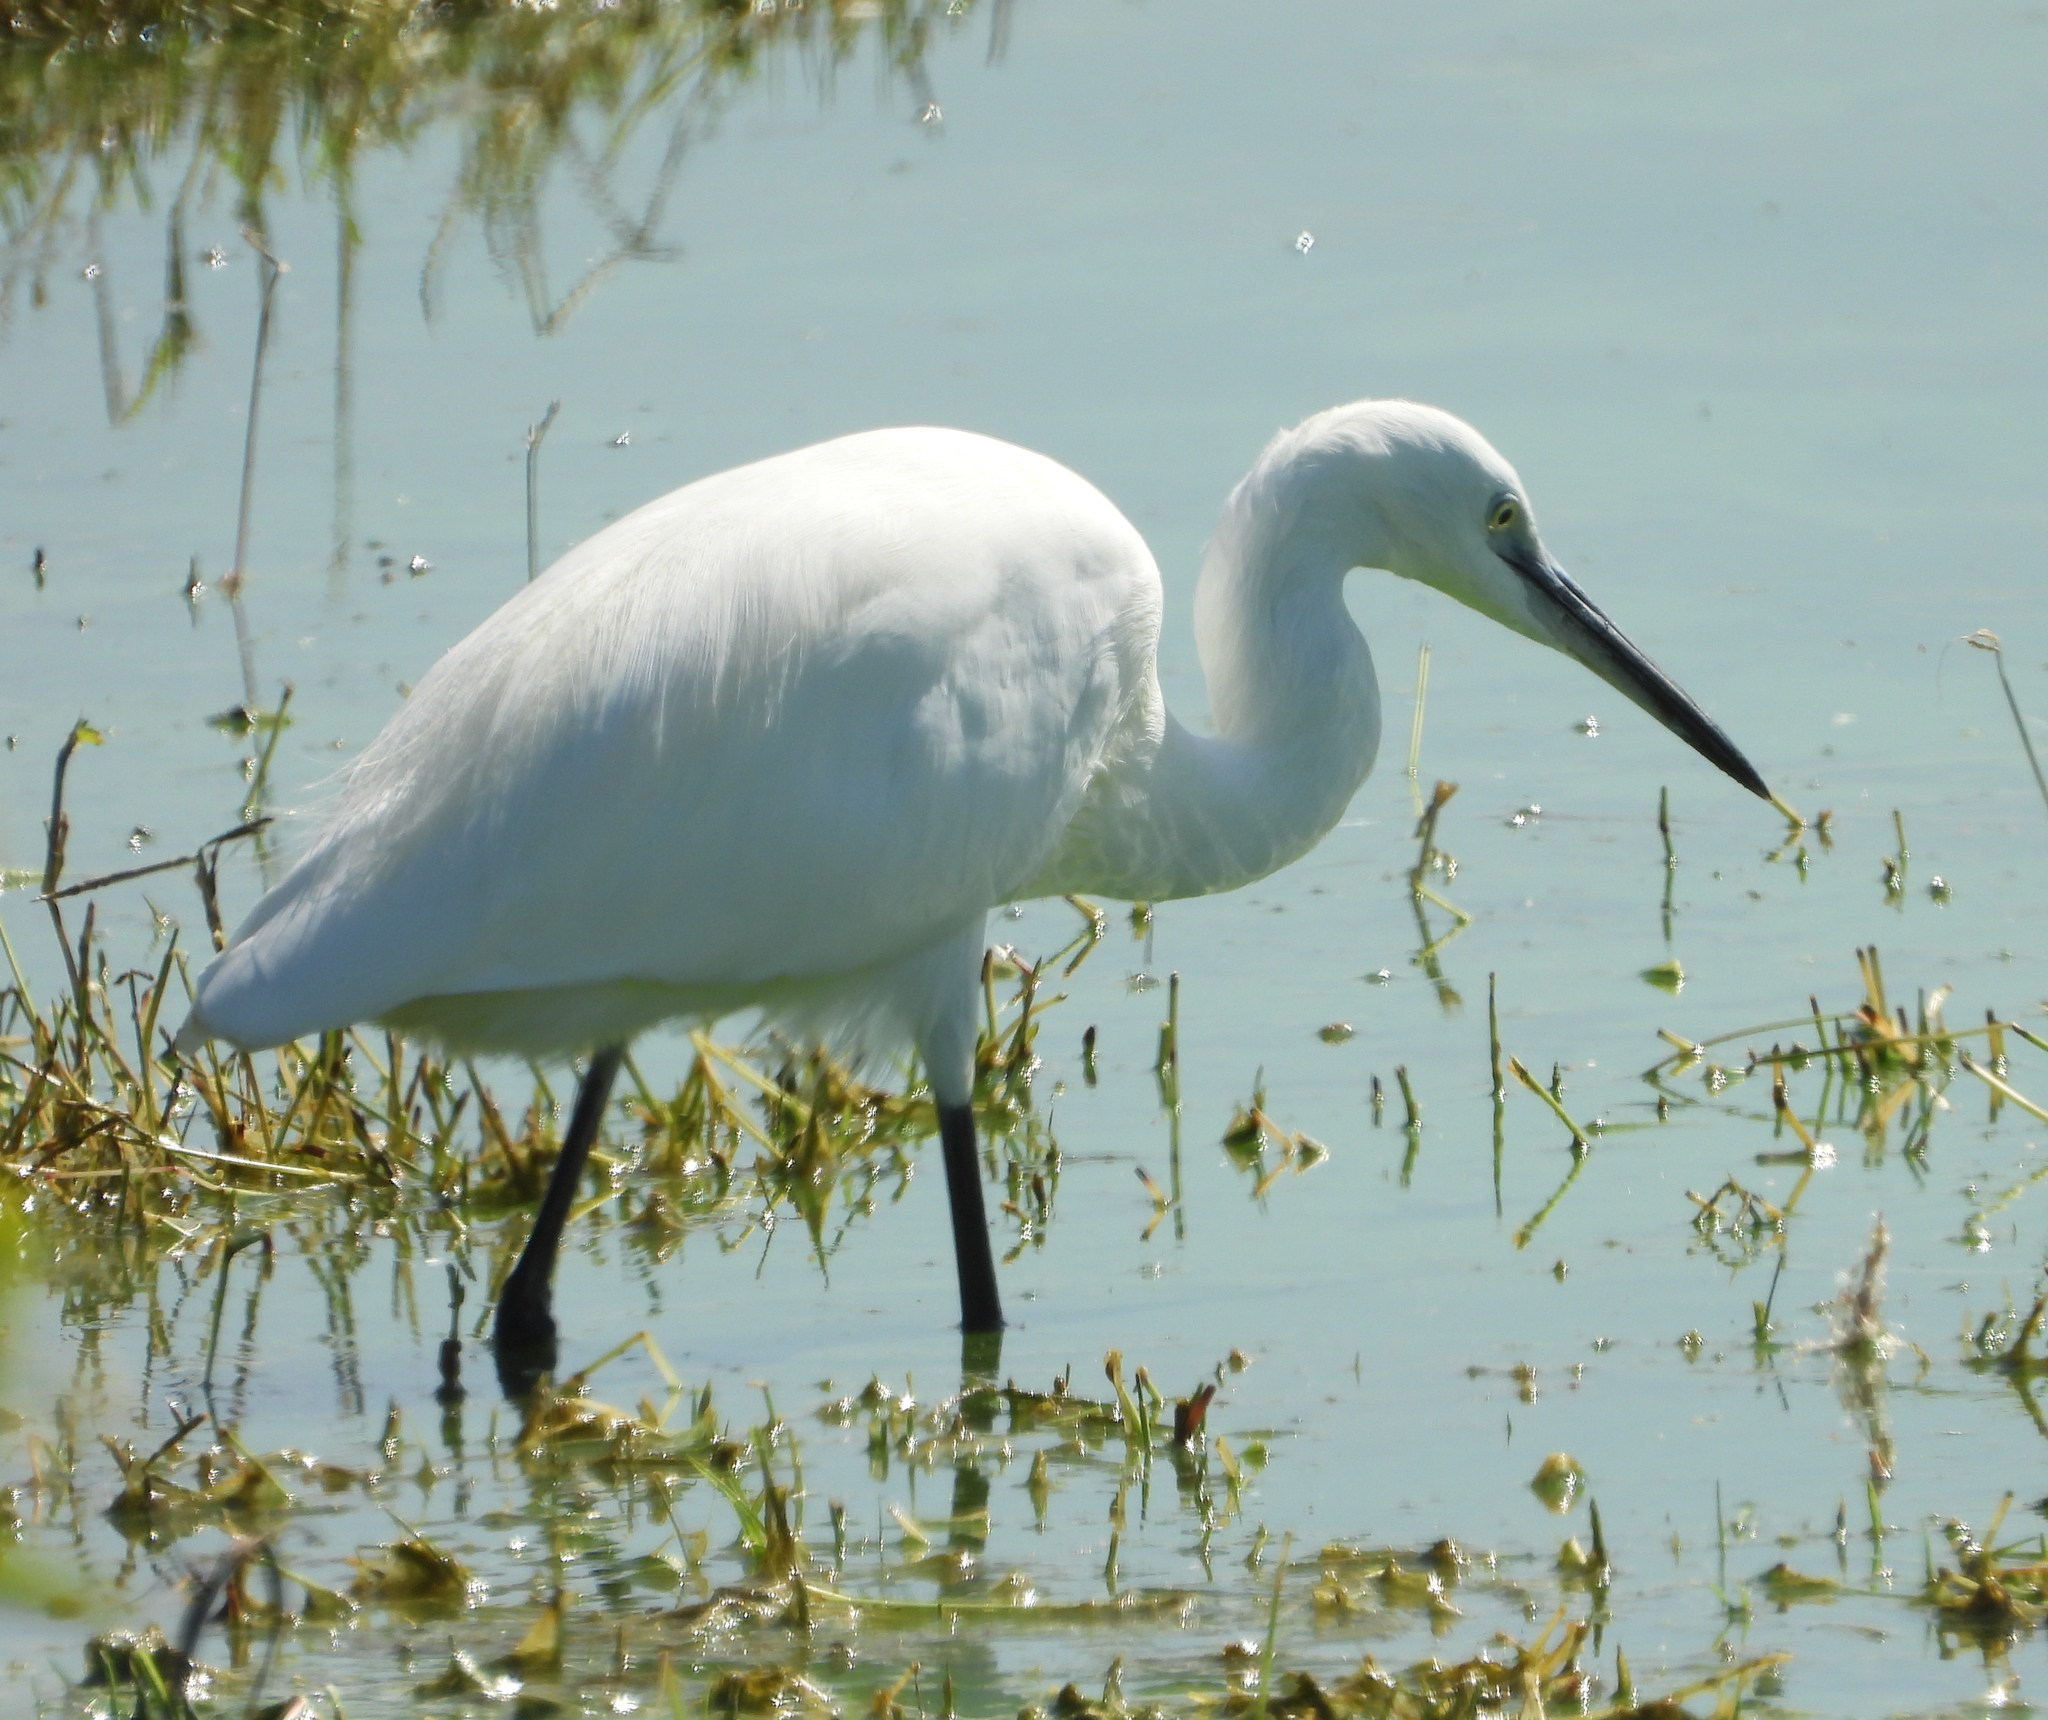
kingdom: Animalia
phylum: Chordata
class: Aves
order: Pelecaniformes
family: Ardeidae
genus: Egretta
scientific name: Egretta garzetta
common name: Little egret
